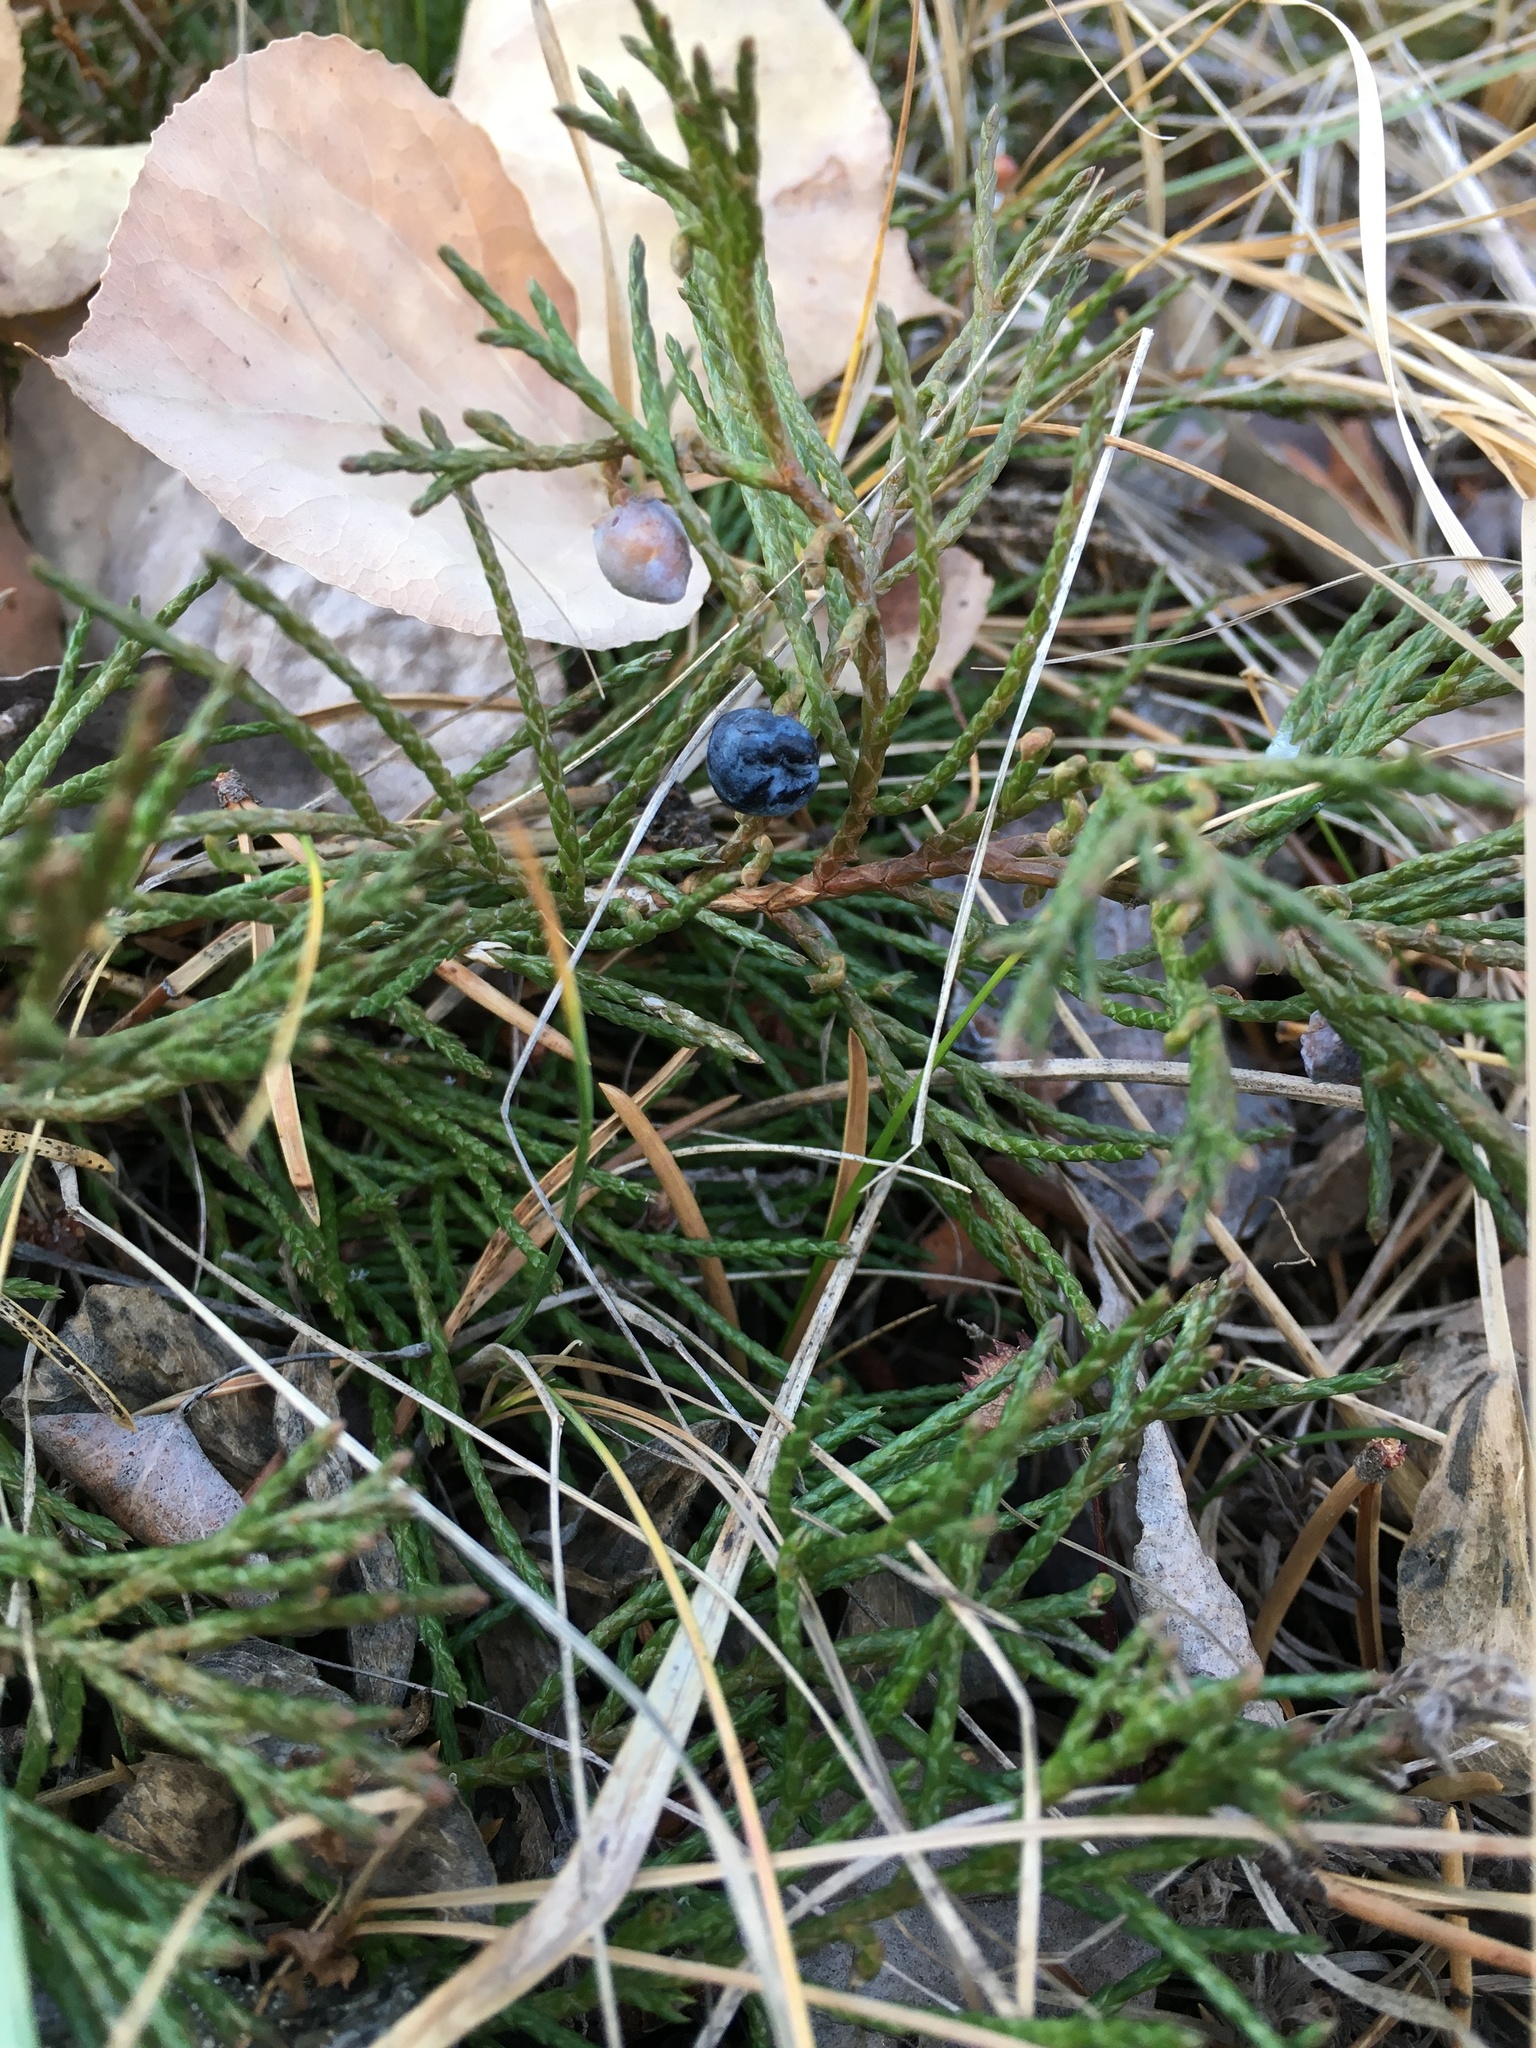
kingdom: Plantae
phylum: Tracheophyta
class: Pinopsida
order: Pinales
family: Cupressaceae
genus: Juniperus
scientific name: Juniperus horizontalis
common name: Creeping juniper
